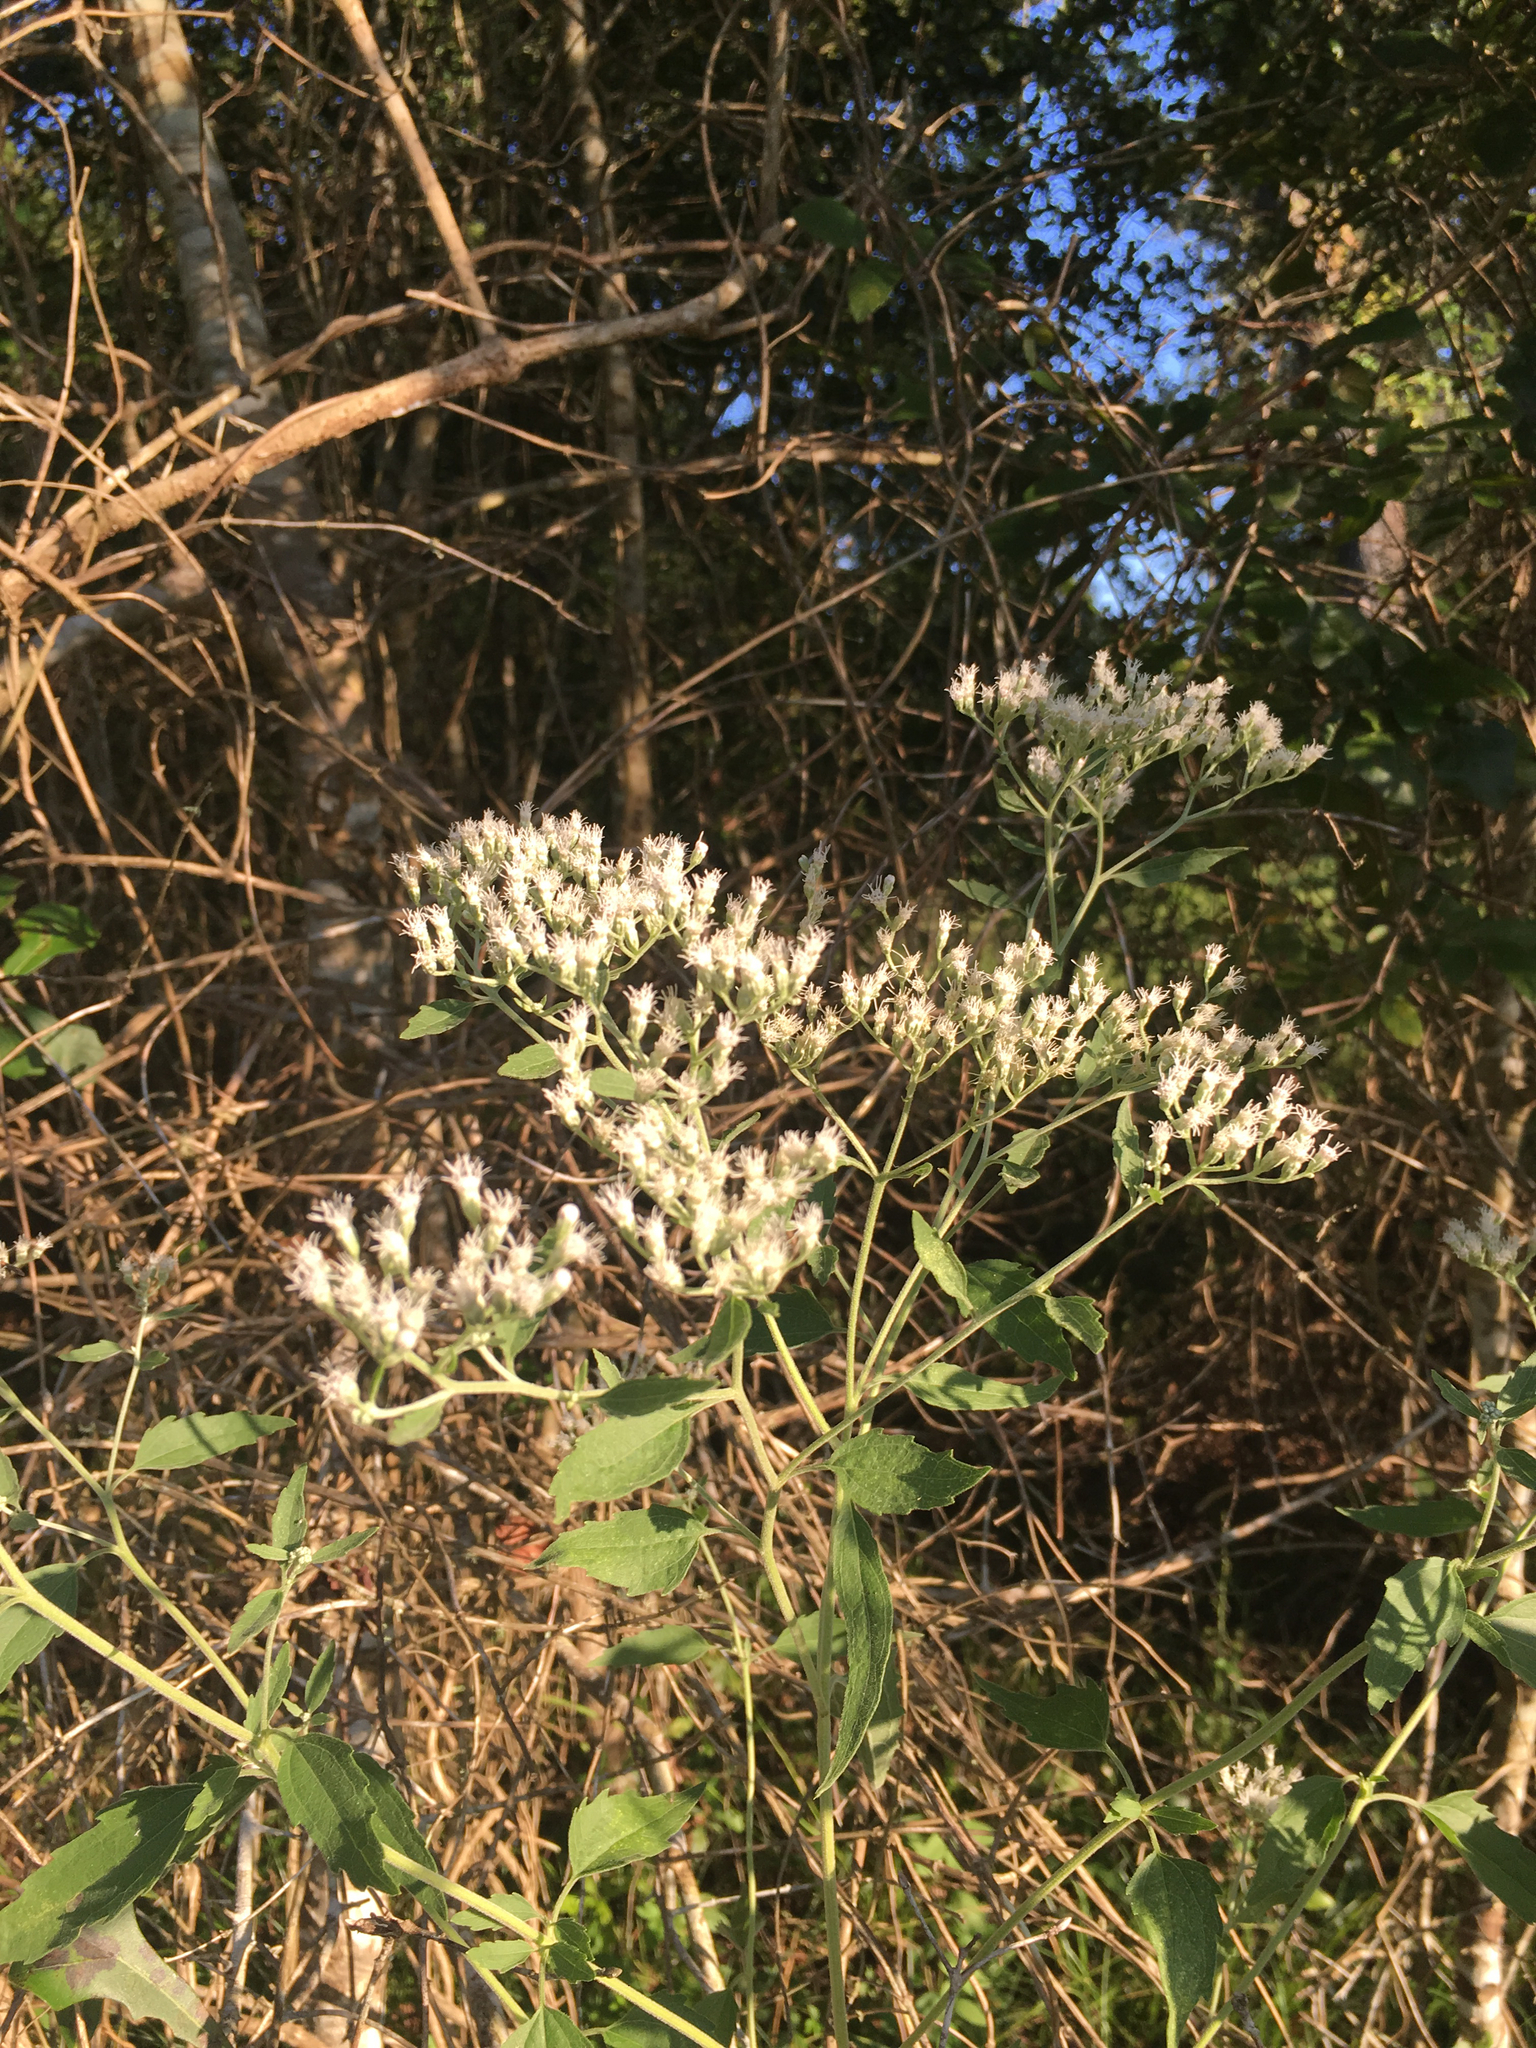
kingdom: Plantae
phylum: Tracheophyta
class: Magnoliopsida
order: Asterales
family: Asteraceae
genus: Eupatorium
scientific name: Eupatorium serotinum
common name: Late boneset
